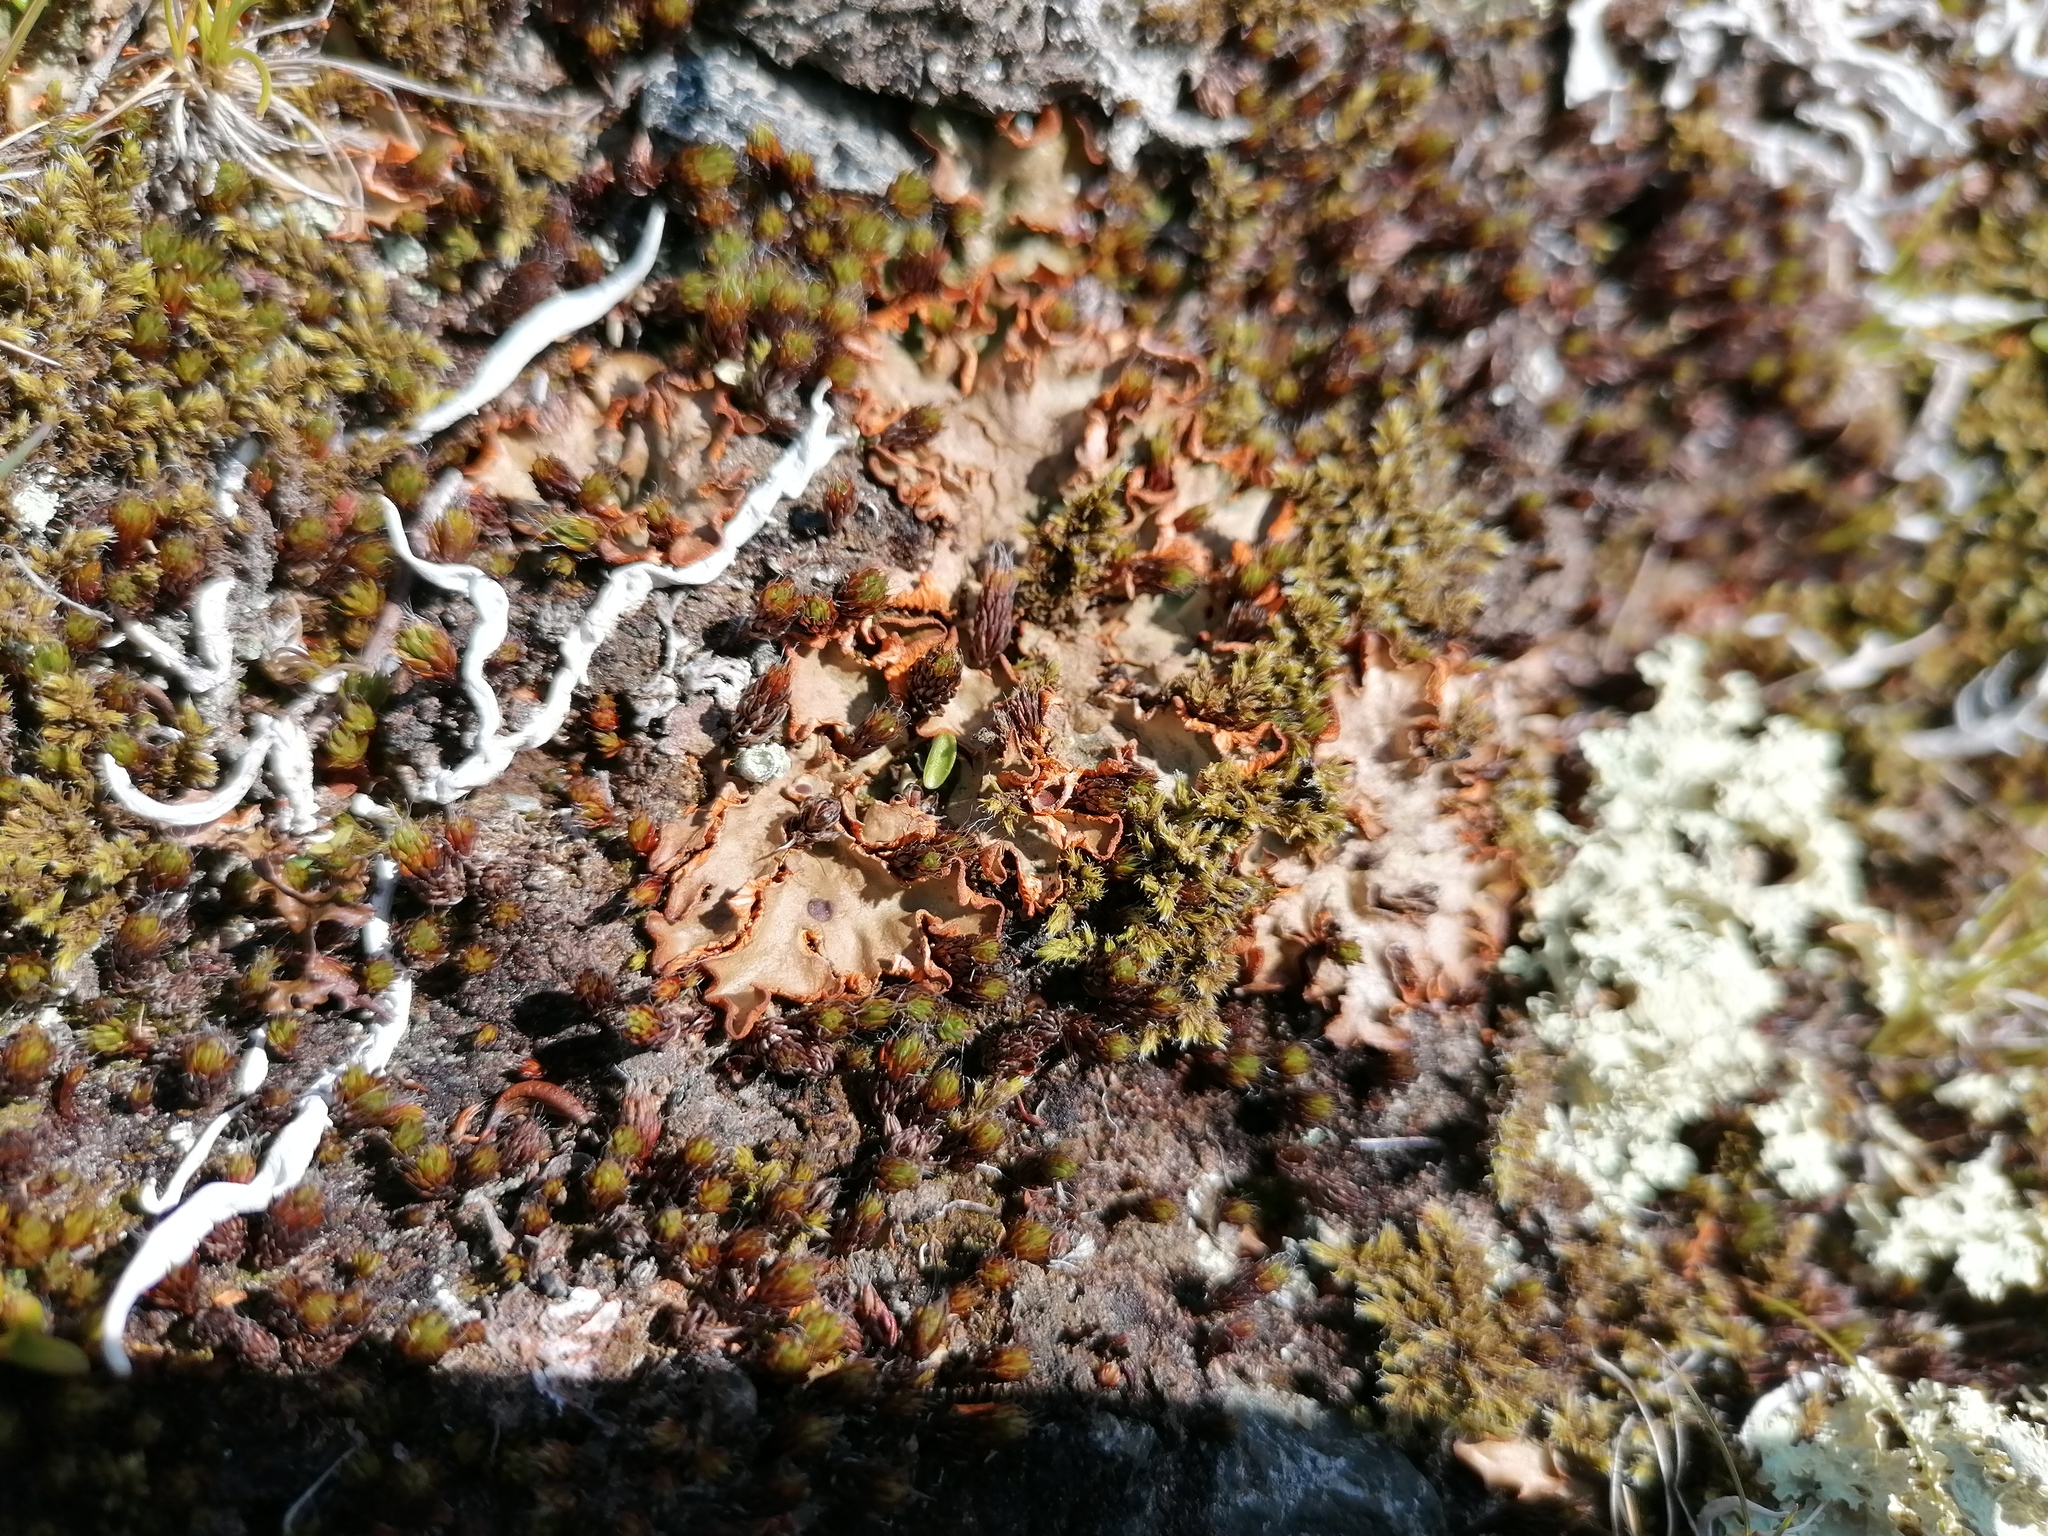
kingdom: Fungi
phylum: Ascomycota
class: Lecanoromycetes
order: Peltigerales
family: Peltigeraceae
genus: Solorina
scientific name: Solorina crocea
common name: Mountain saffron
